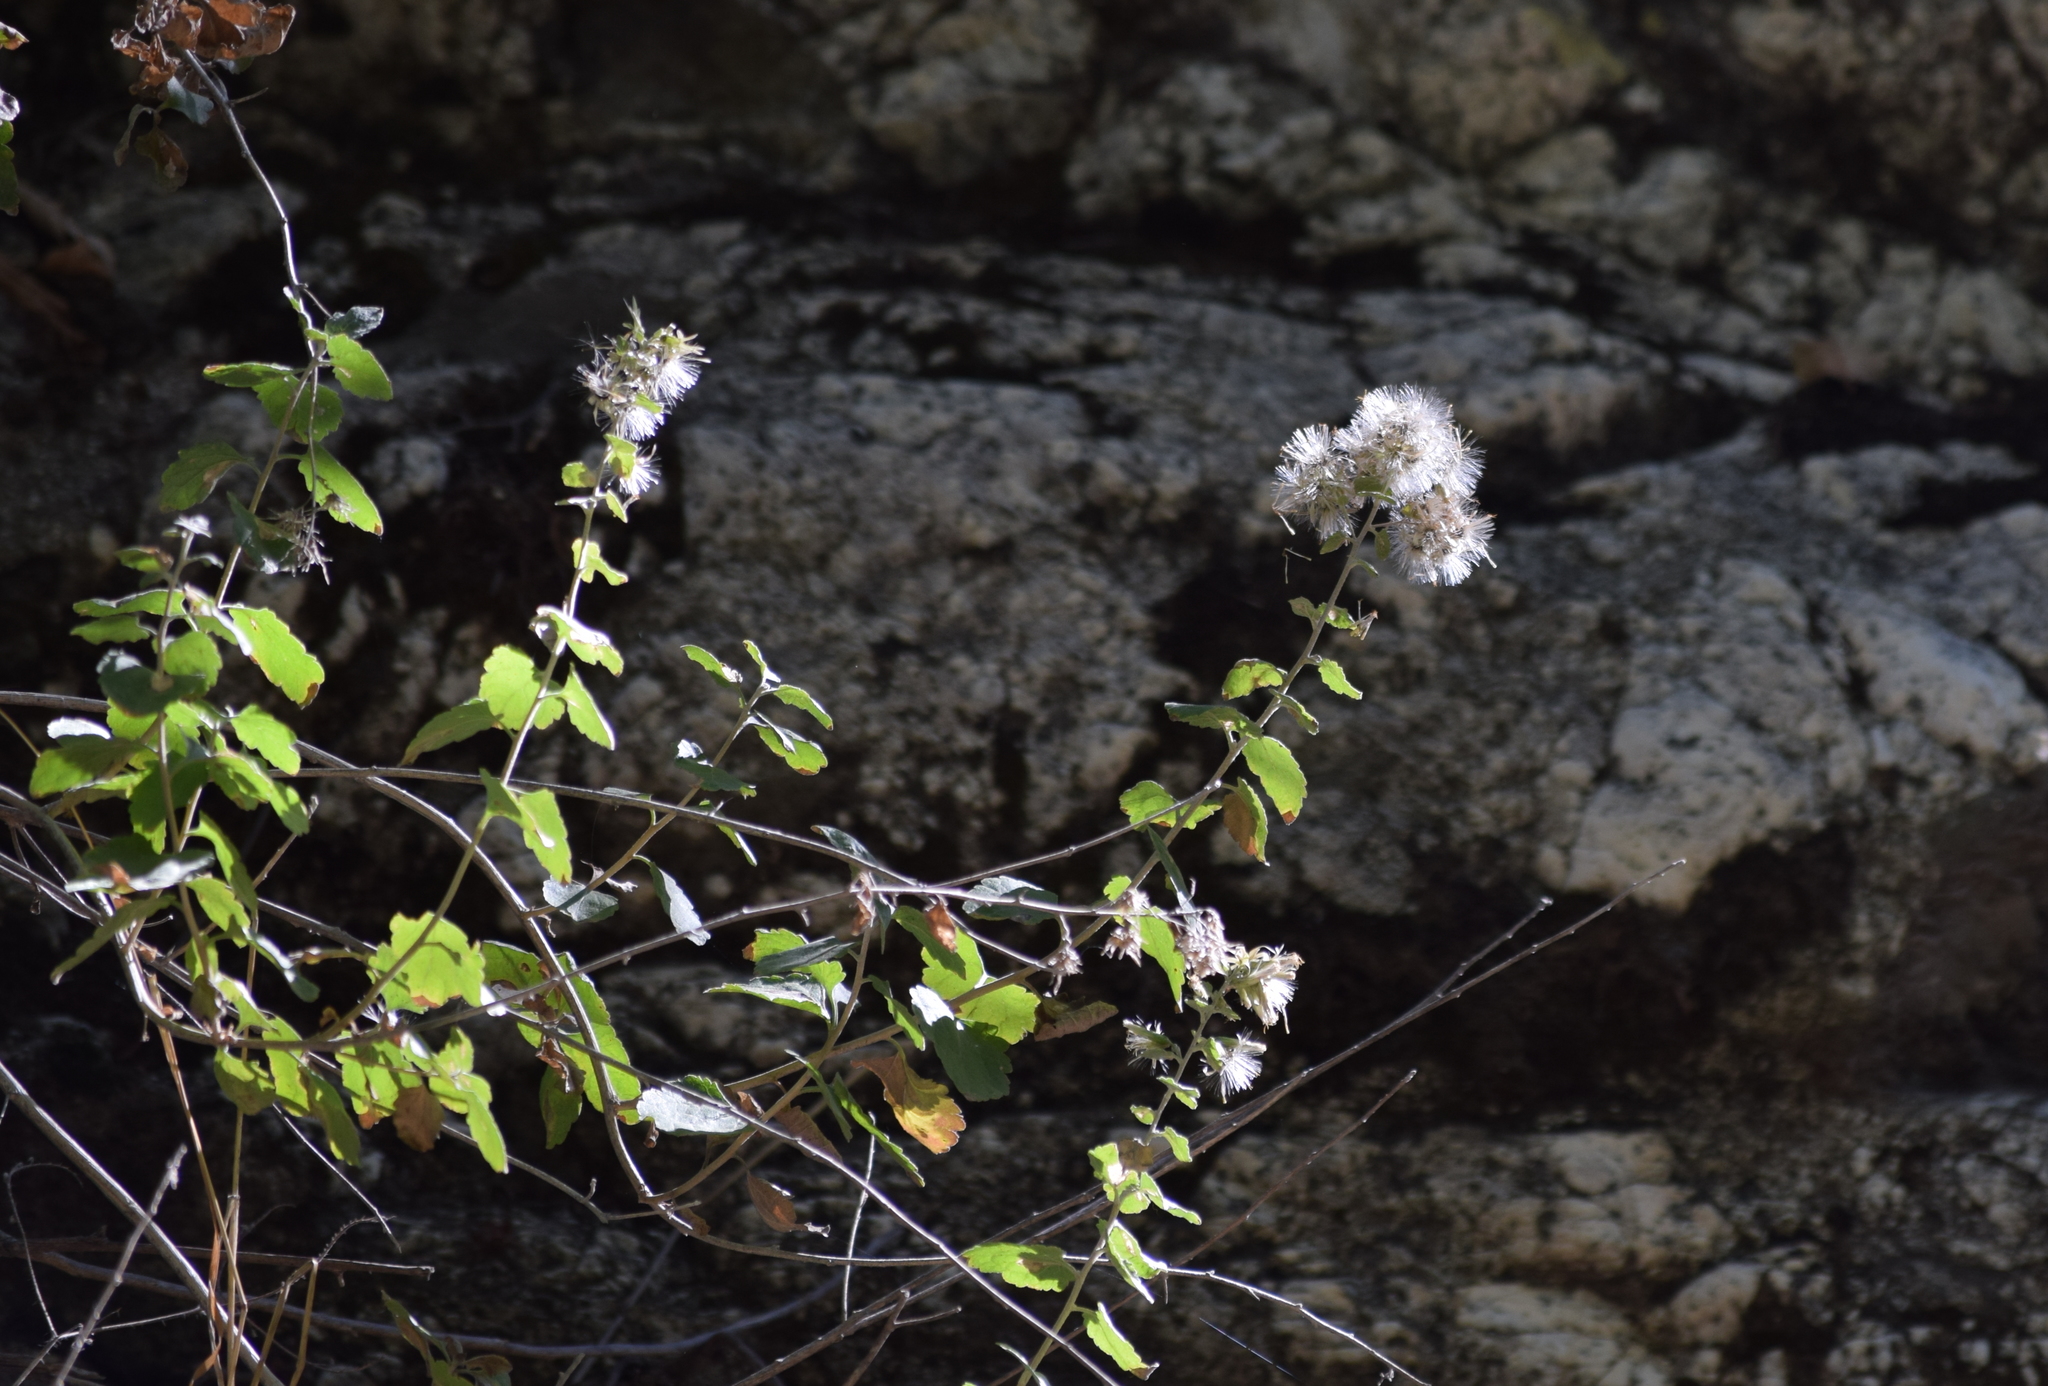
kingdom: Plantae
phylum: Tracheophyta
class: Magnoliopsida
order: Asterales
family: Asteraceae
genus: Brickellia
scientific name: Brickellia californica
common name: California brickellbush
